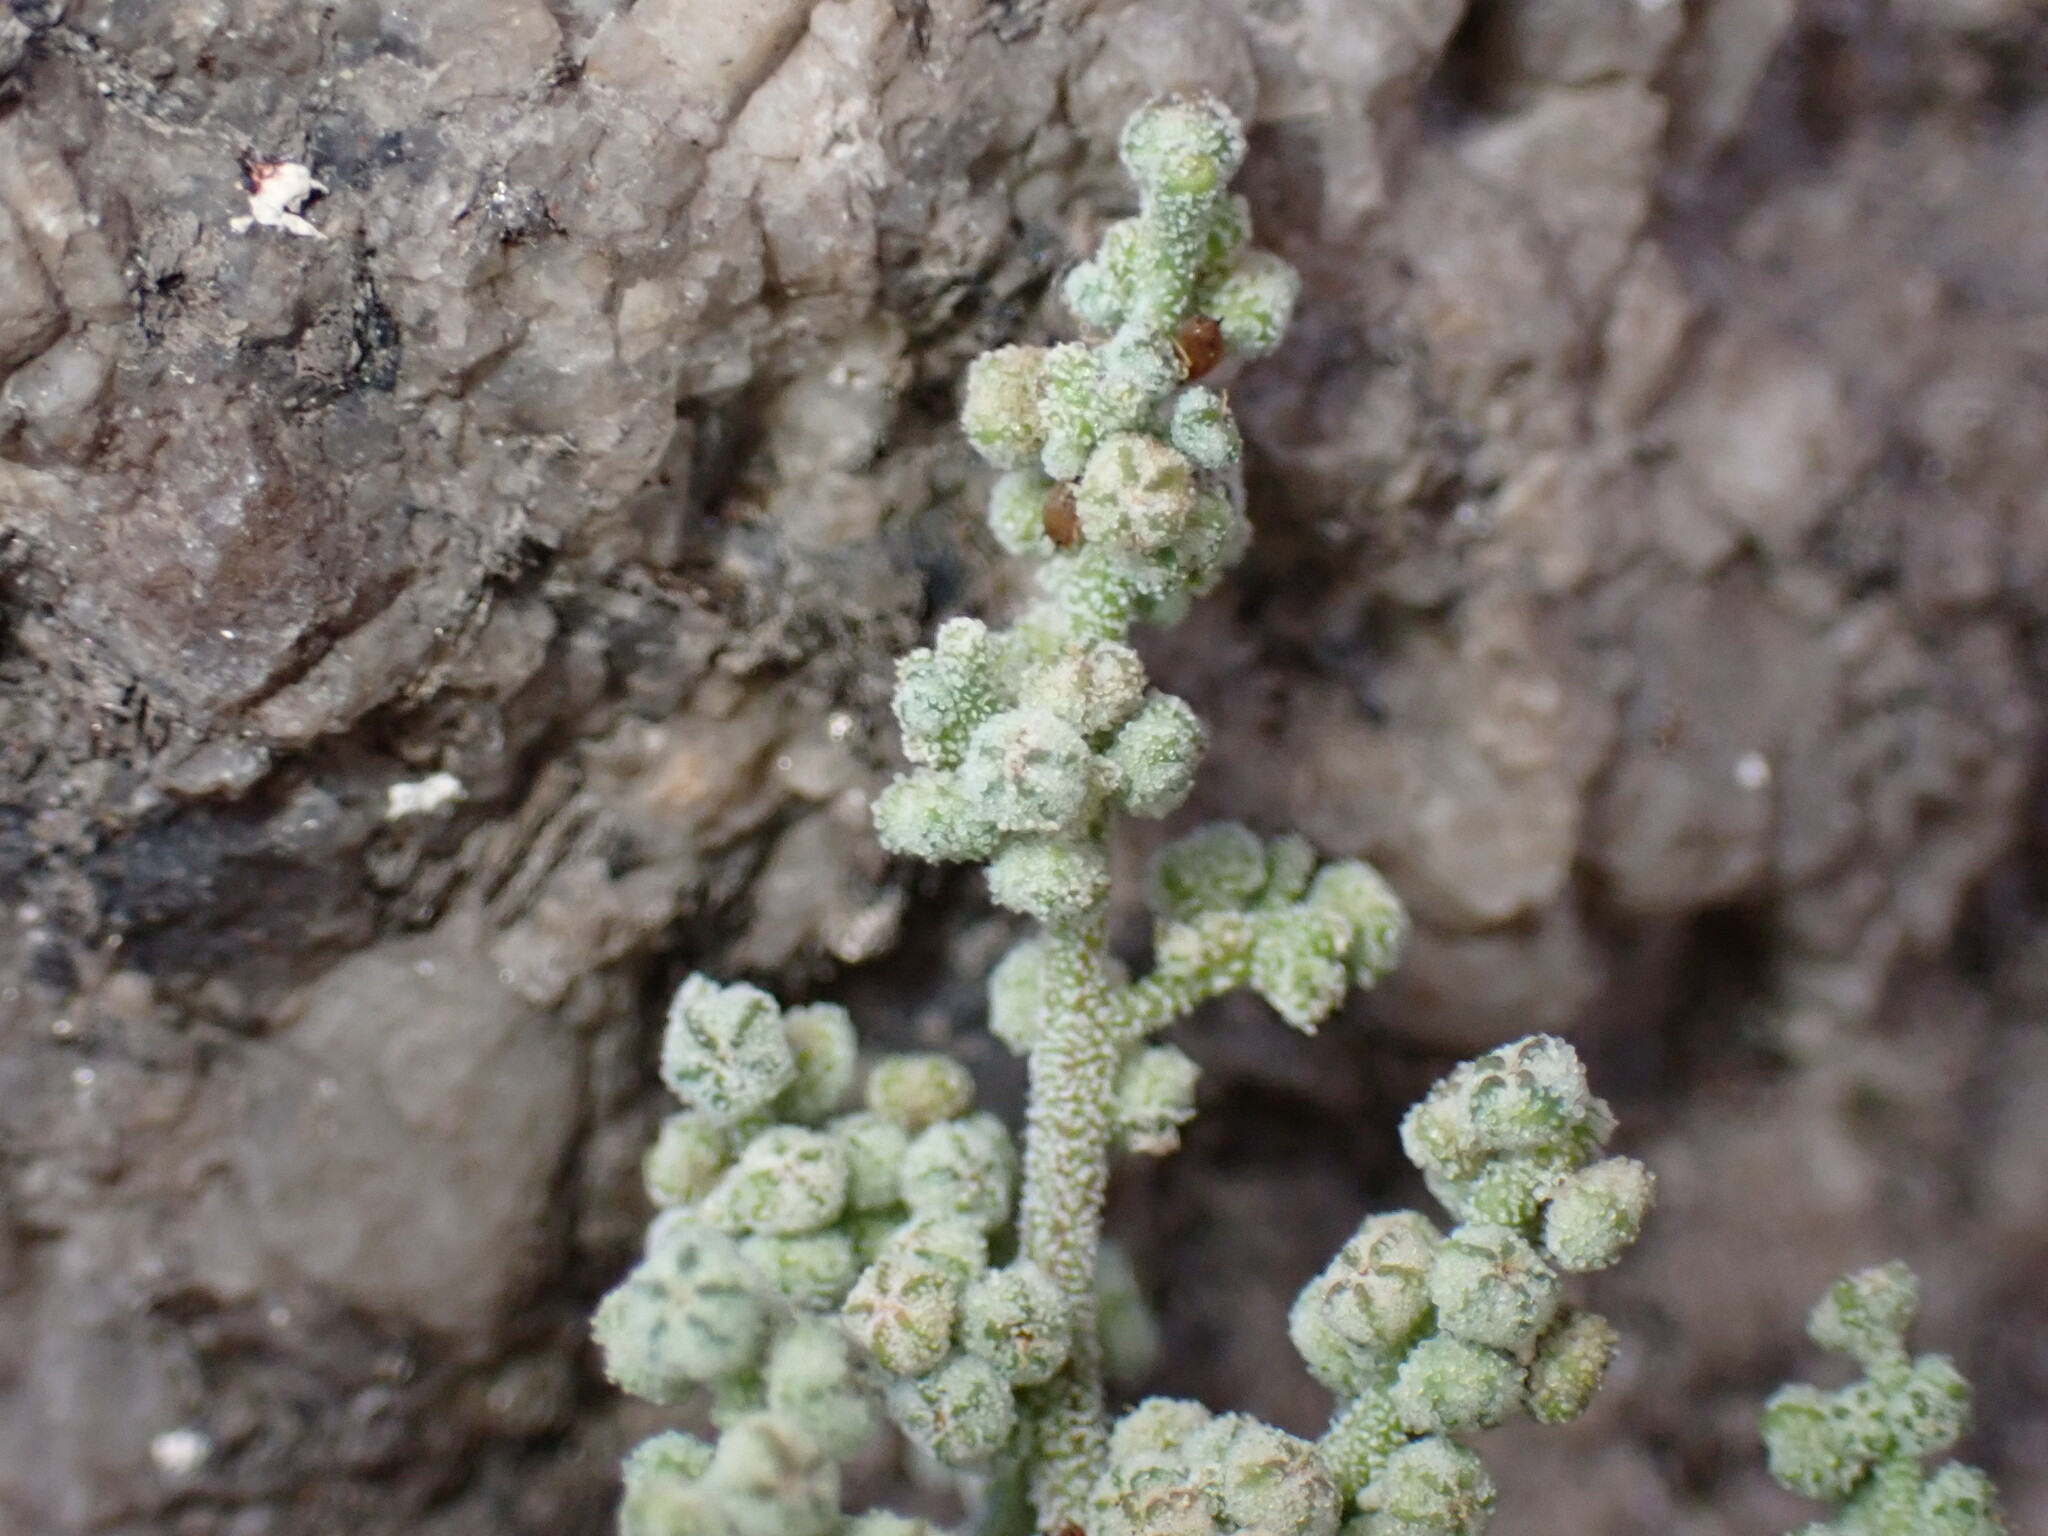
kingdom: Plantae
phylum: Tracheophyta
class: Magnoliopsida
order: Caryophyllales
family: Amaranthaceae
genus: Chenopodium
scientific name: Chenopodium vulvaria
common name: Stinking goosefoot
